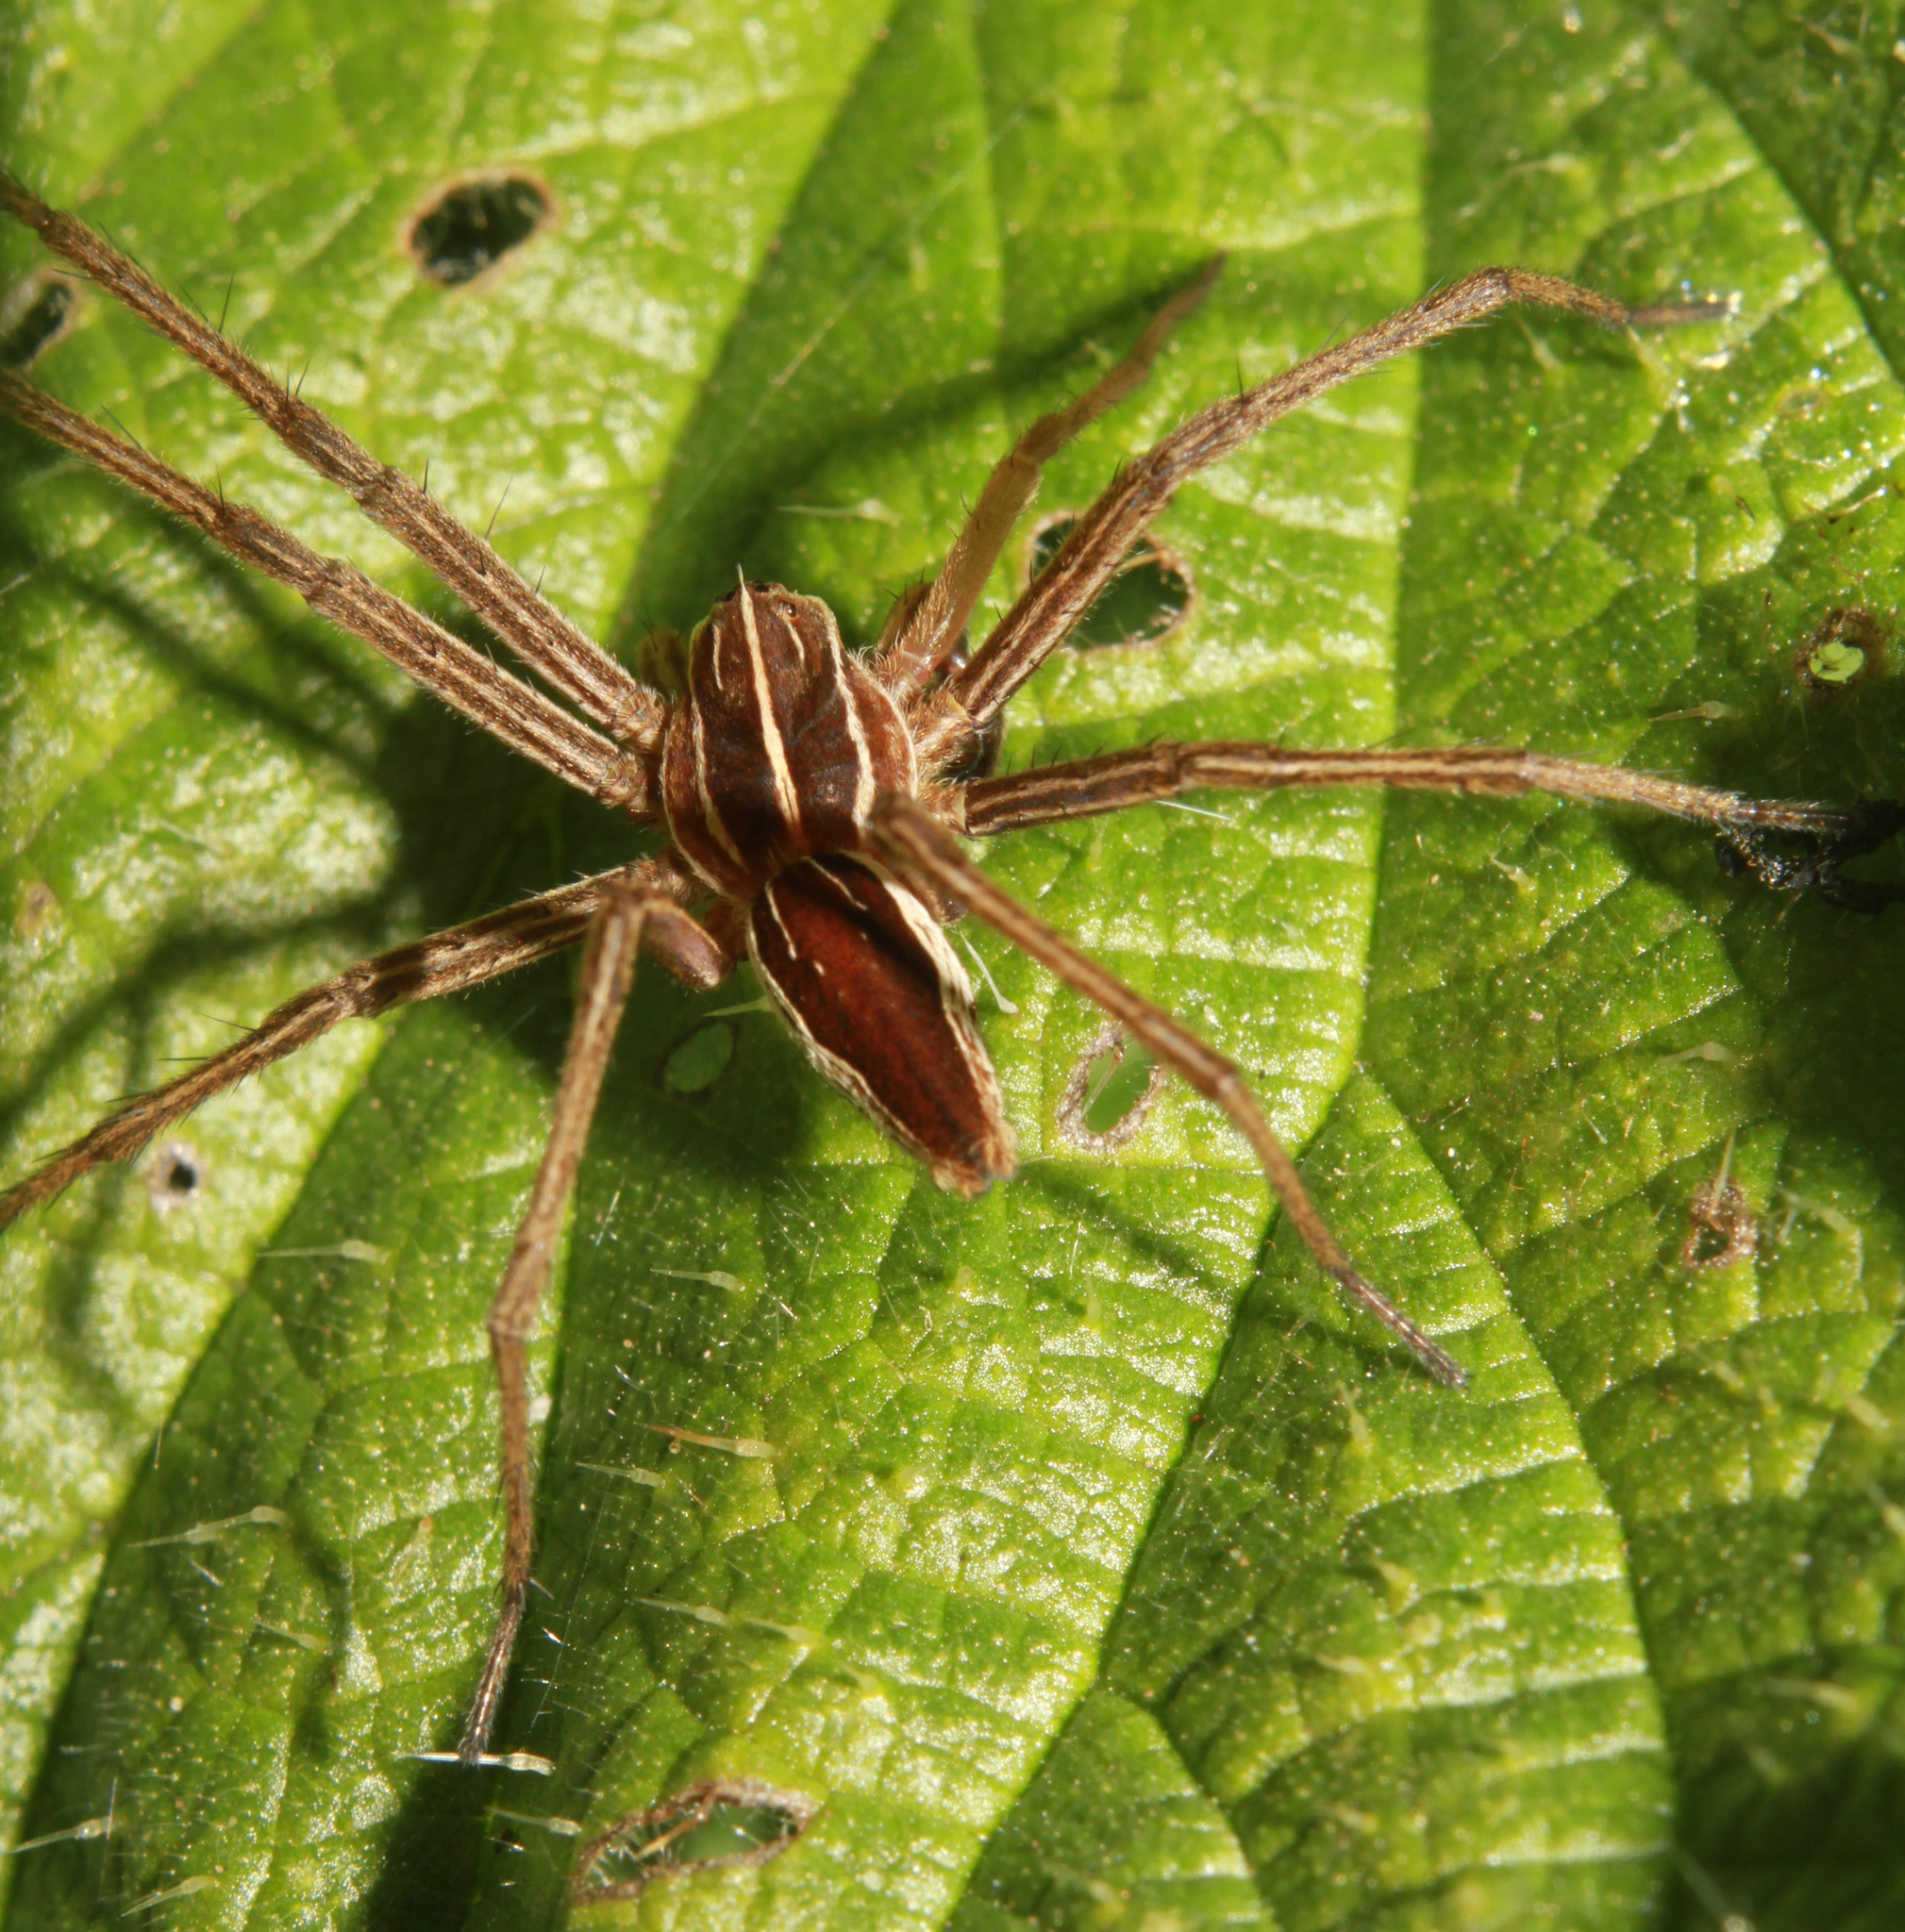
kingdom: Animalia
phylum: Arthropoda
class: Arachnida
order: Araneae
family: Pisauridae
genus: Pisaura
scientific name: Pisaura mirabilis
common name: Tent spider
